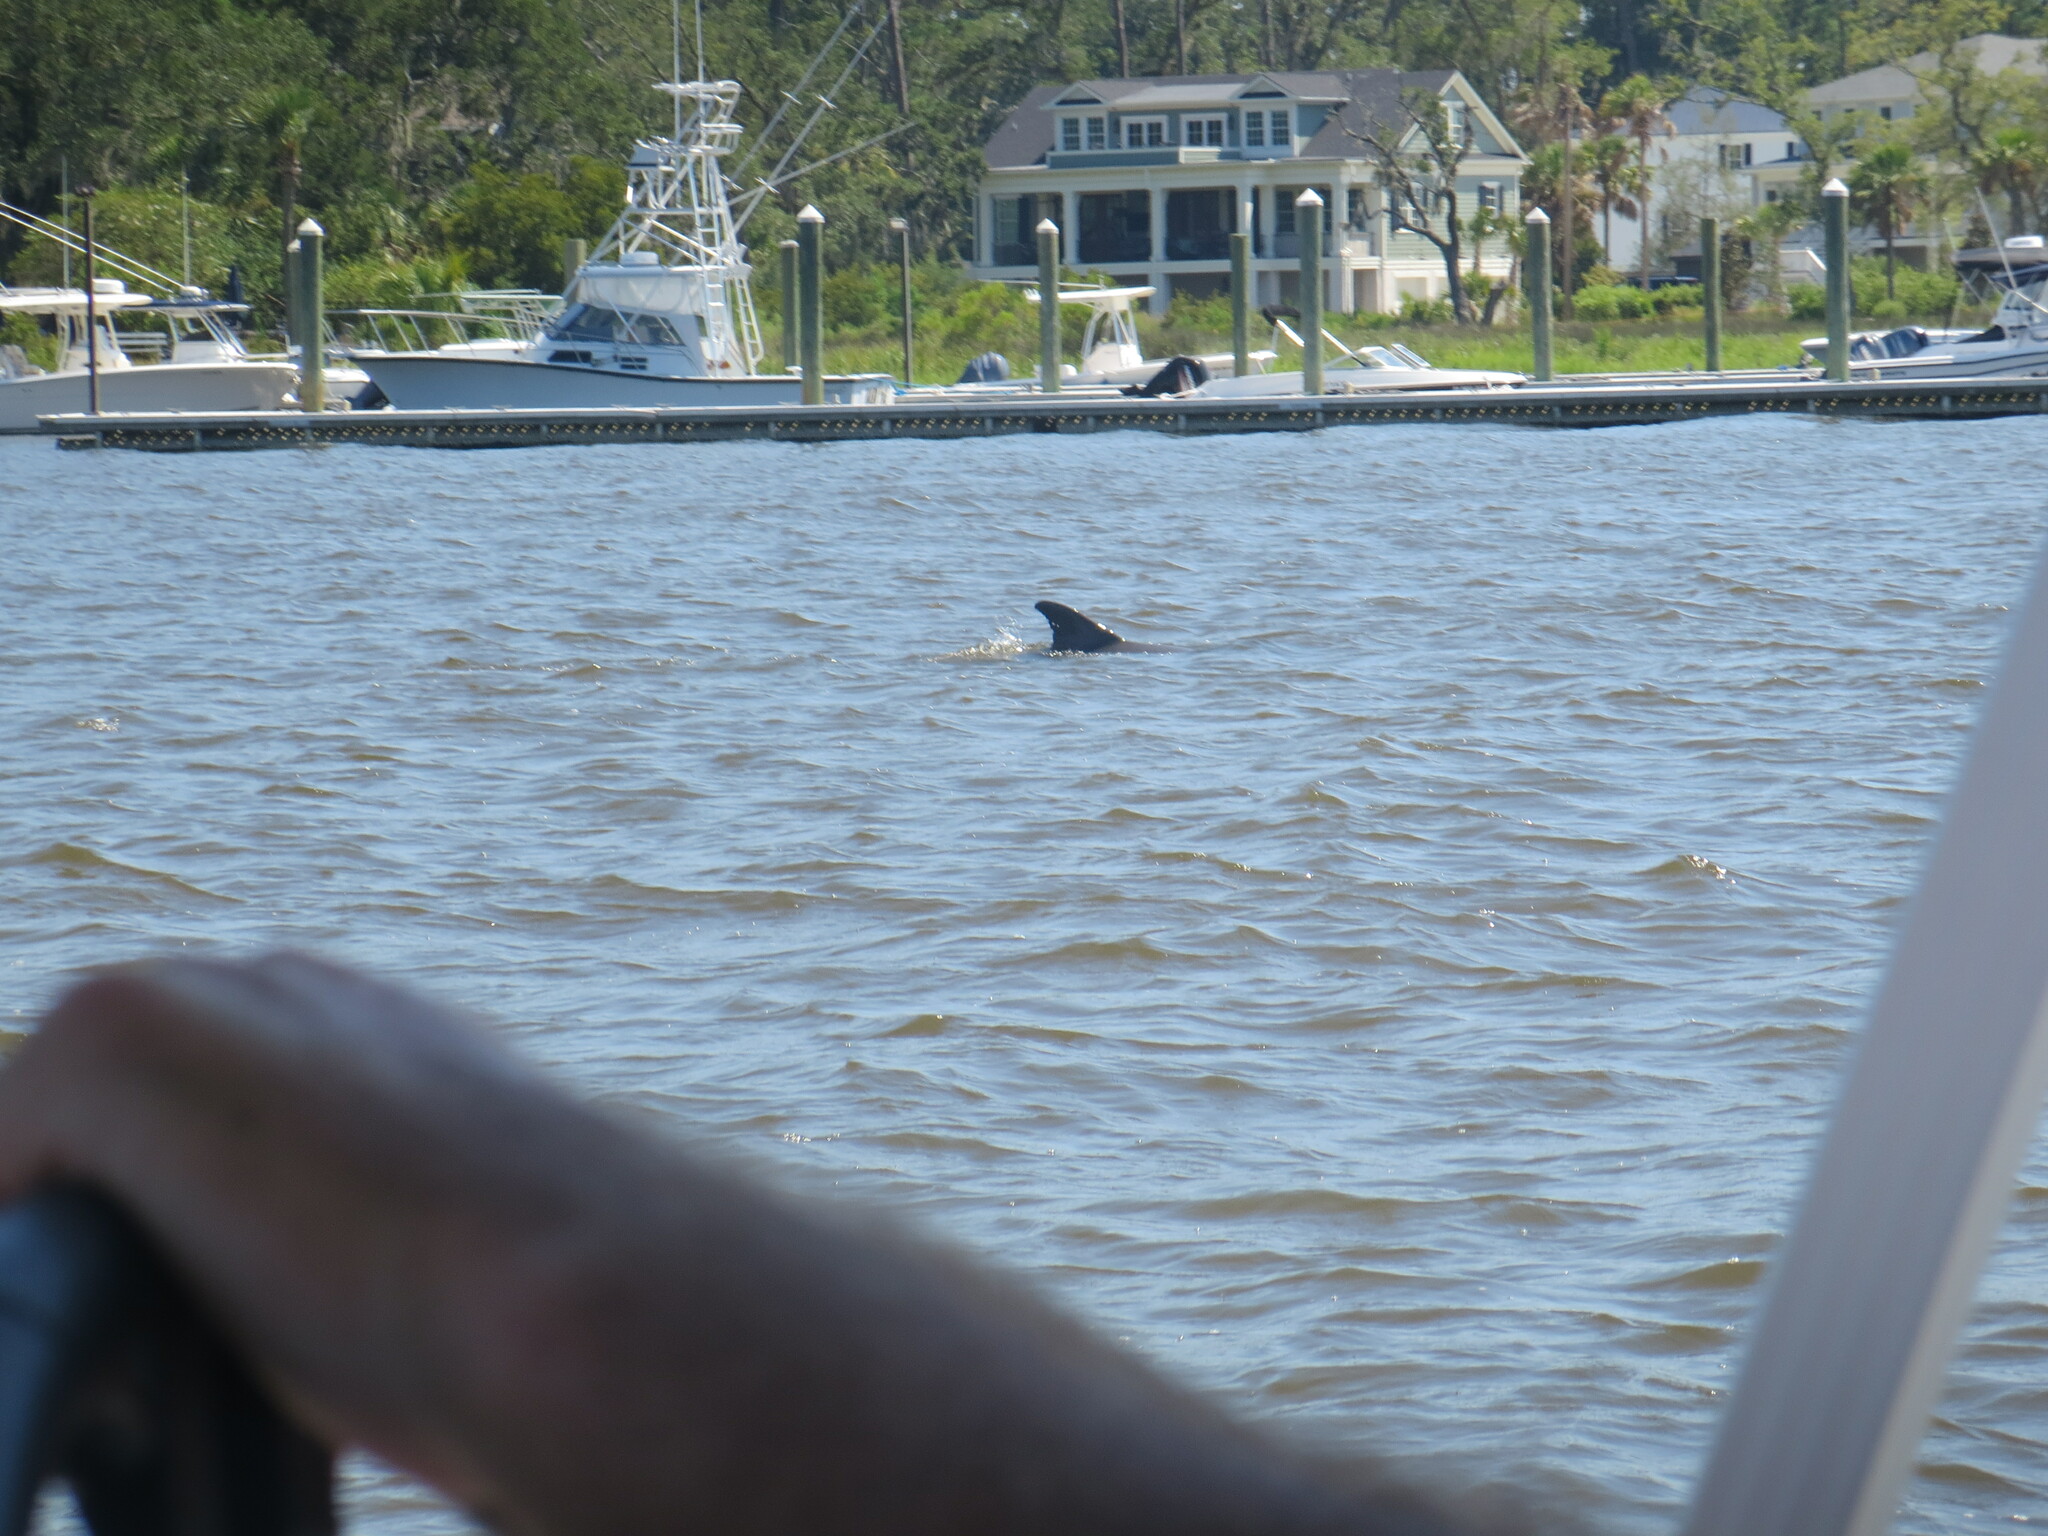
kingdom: Animalia
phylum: Chordata
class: Mammalia
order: Cetacea
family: Delphinidae
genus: Tursiops
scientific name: Tursiops truncatus
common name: Bottlenose dolphin
